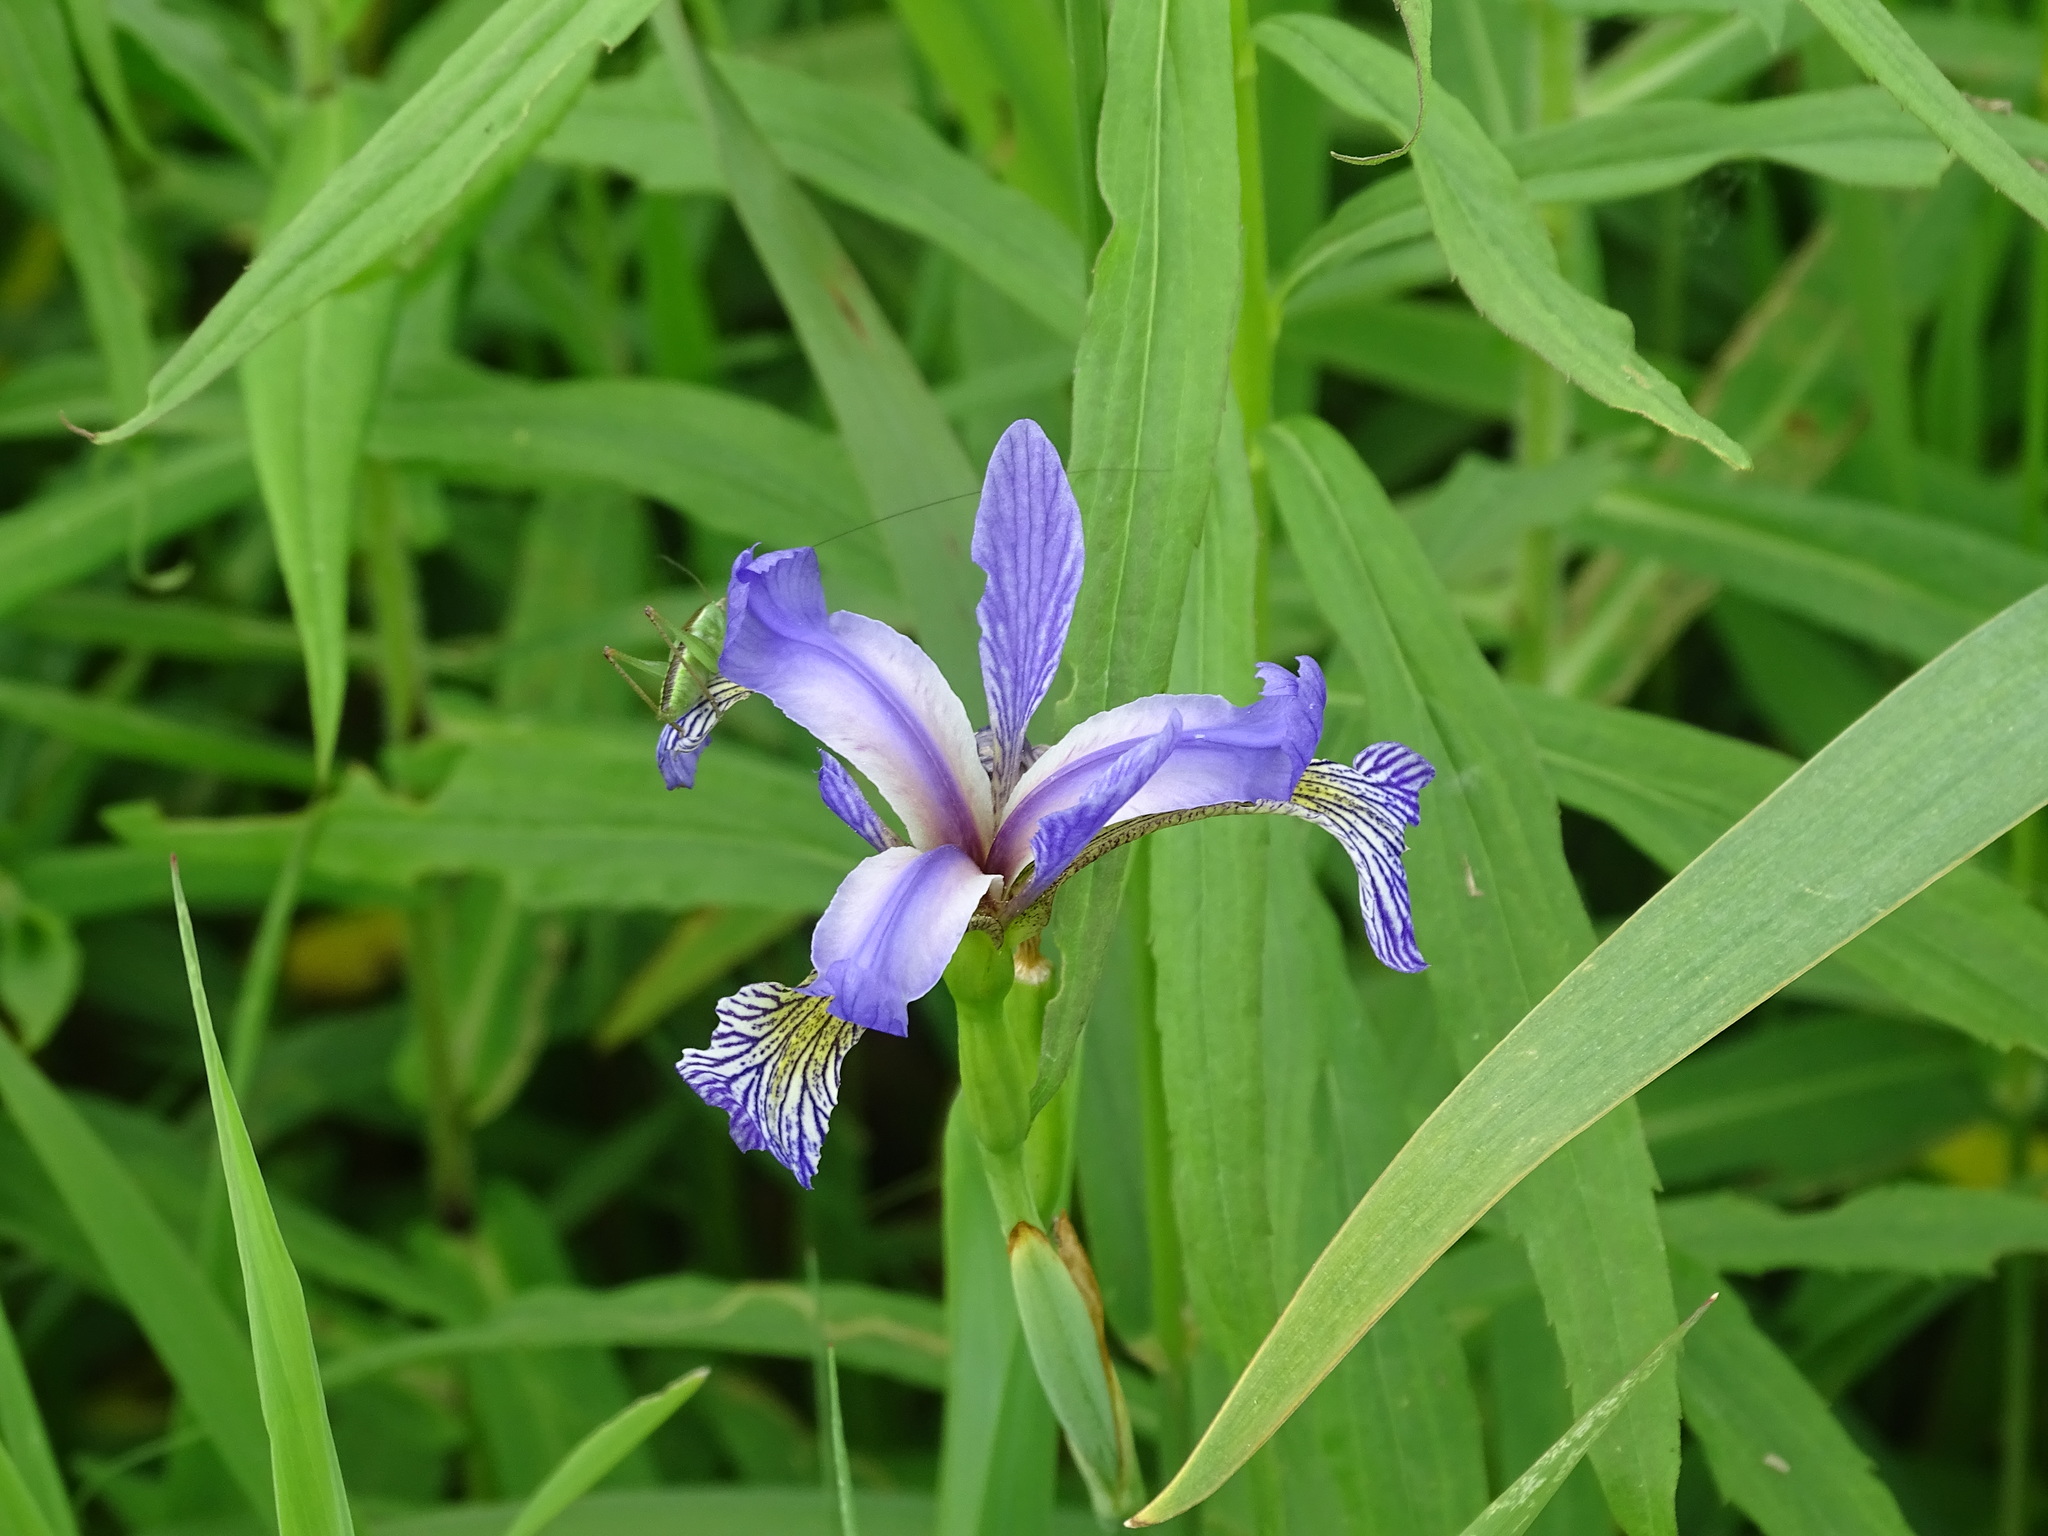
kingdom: Plantae
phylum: Tracheophyta
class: Liliopsida
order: Asparagales
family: Iridaceae
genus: Iris
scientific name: Iris versicolor
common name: Purple iris
